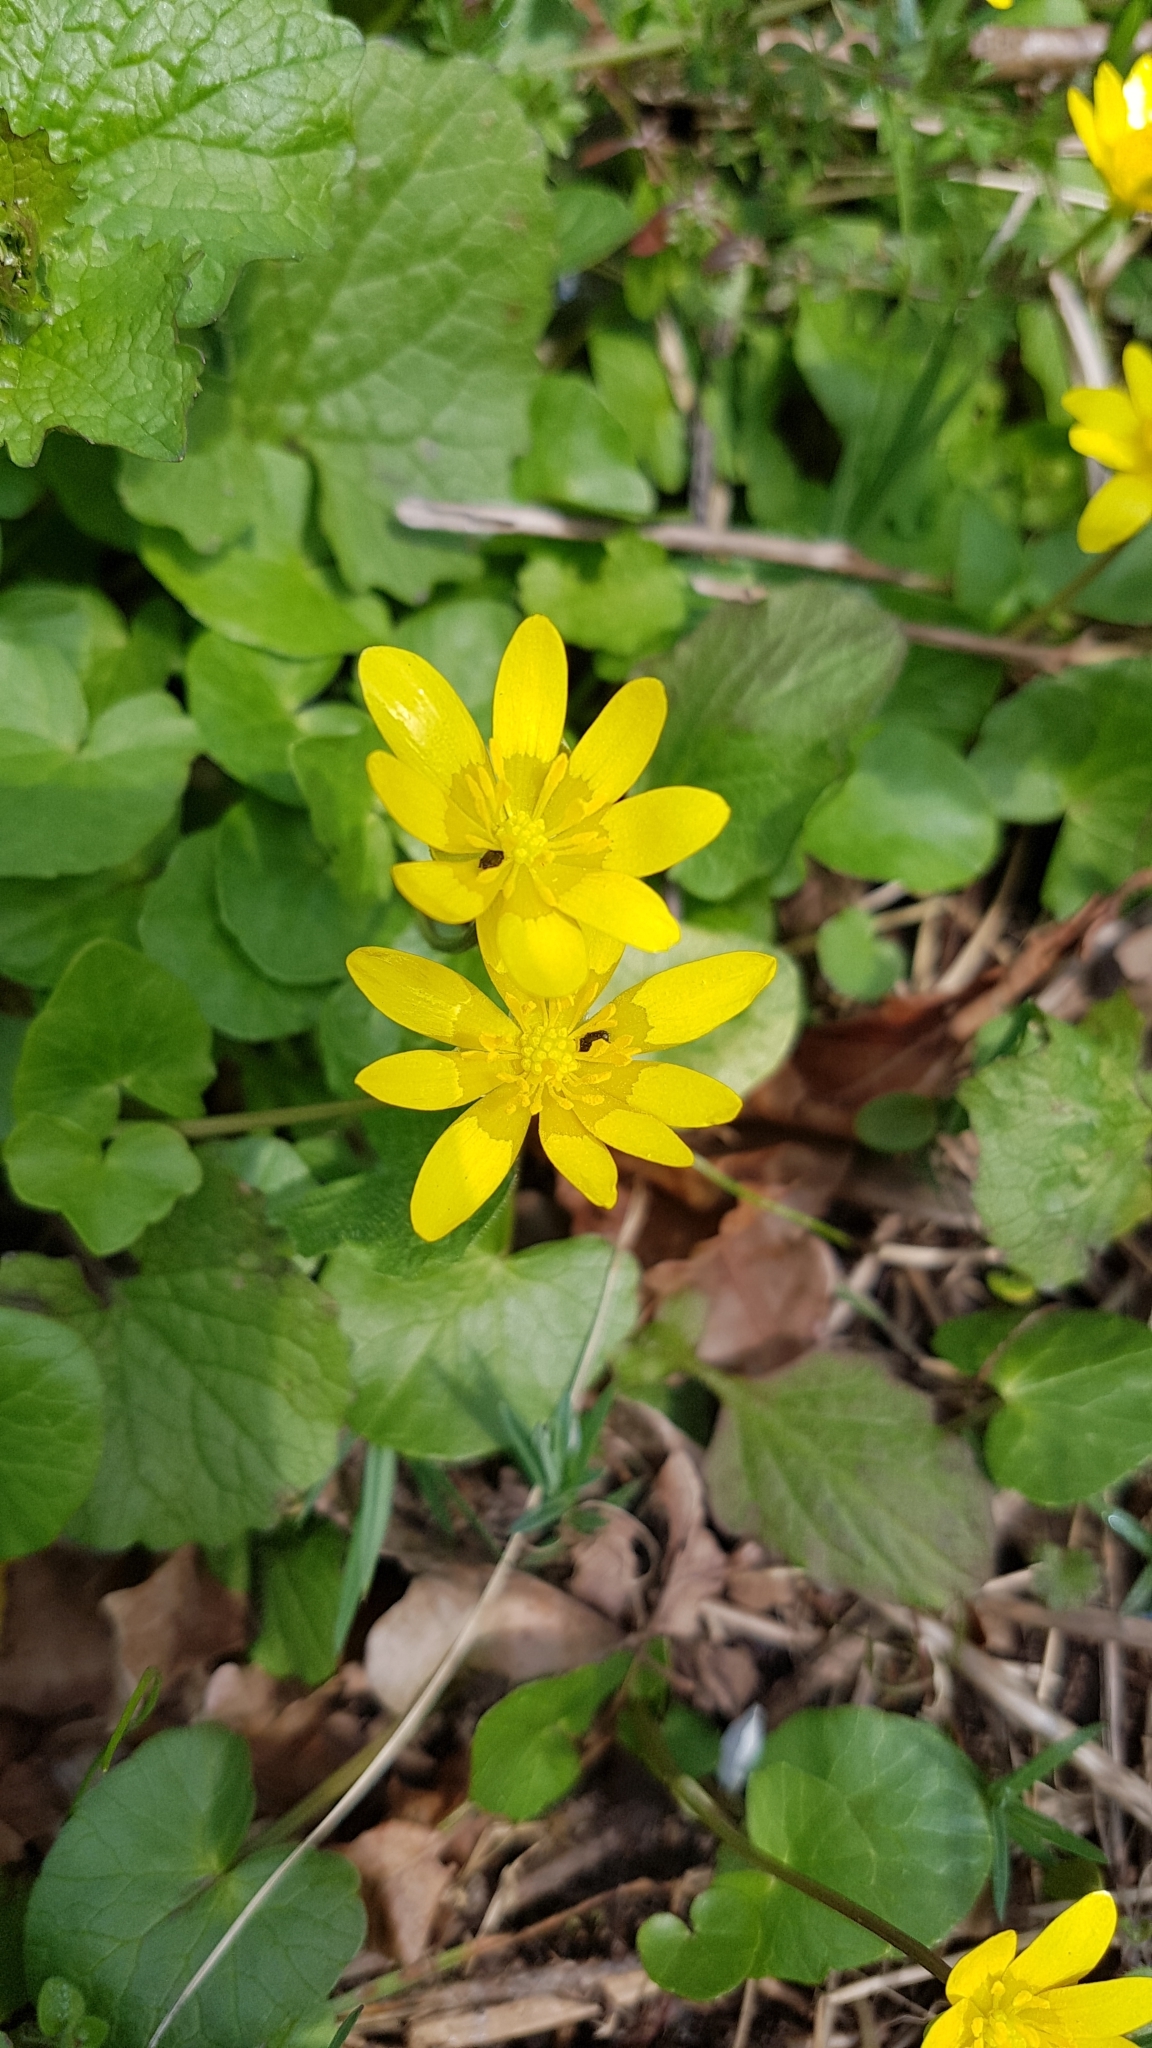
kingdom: Plantae
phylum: Tracheophyta
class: Magnoliopsida
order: Ranunculales
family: Ranunculaceae
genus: Ficaria
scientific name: Ficaria verna
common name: Lesser celandine
